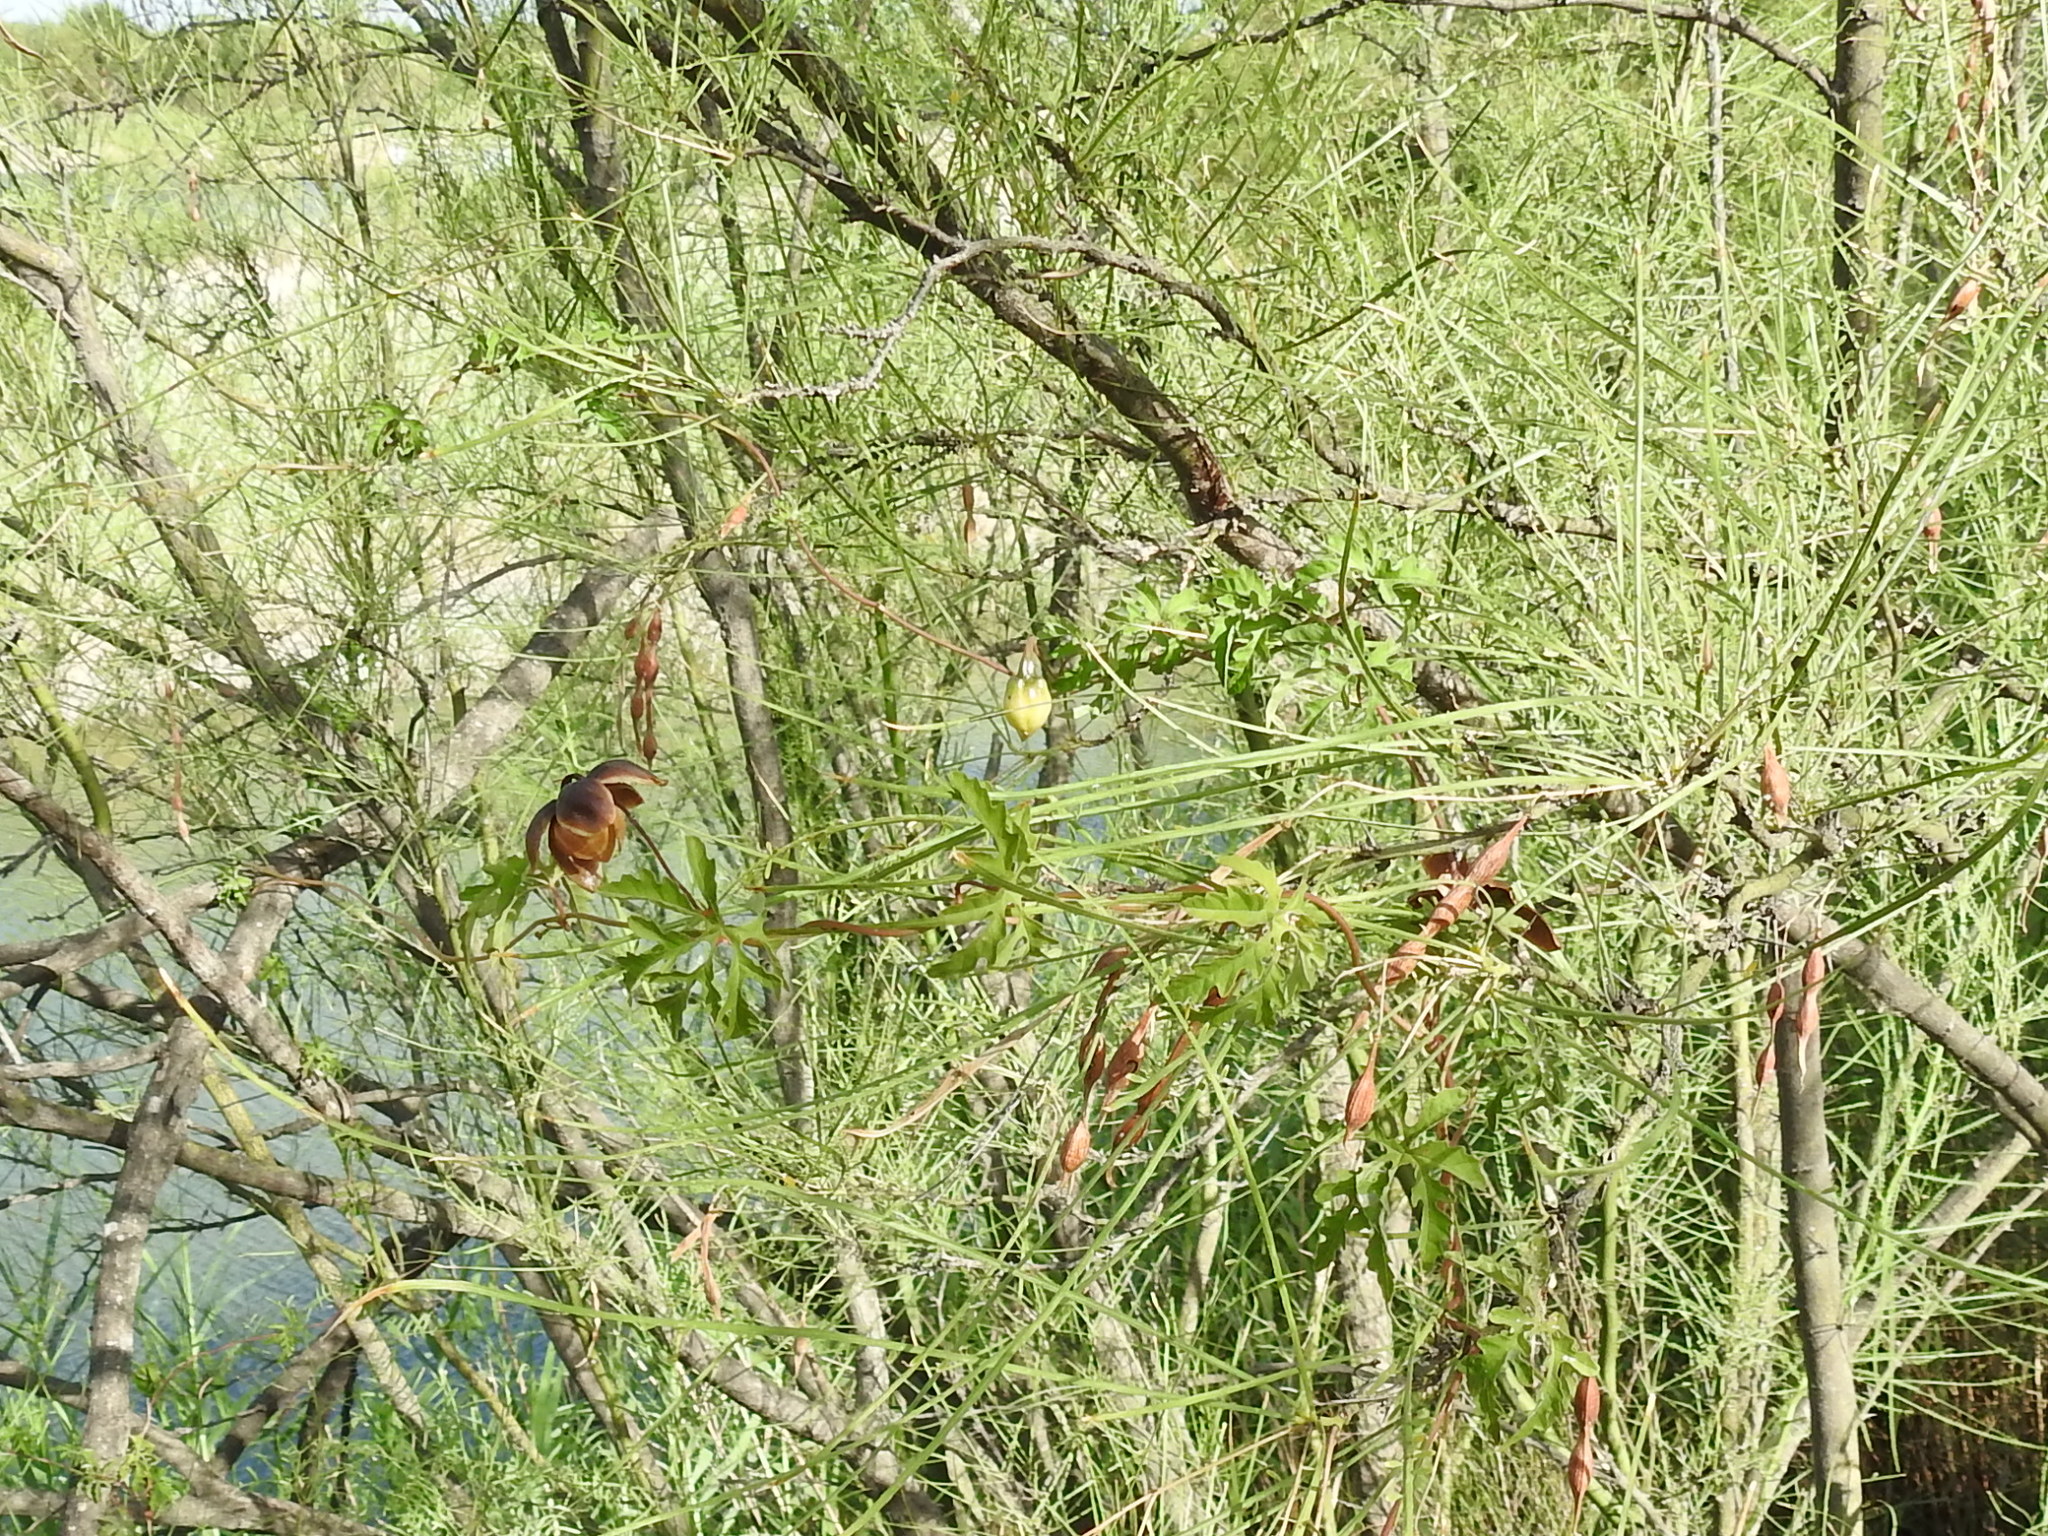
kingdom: Plantae
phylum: Tracheophyta
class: Magnoliopsida
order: Solanales
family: Convolvulaceae
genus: Distimake
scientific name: Distimake dissectus
